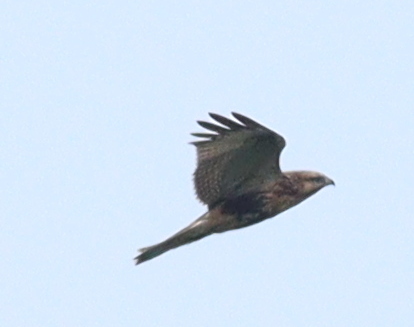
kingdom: Animalia
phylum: Chordata
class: Aves
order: Accipitriformes
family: Accipitridae
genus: Buteo
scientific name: Buteo japonicus
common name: Eastern buzzard
